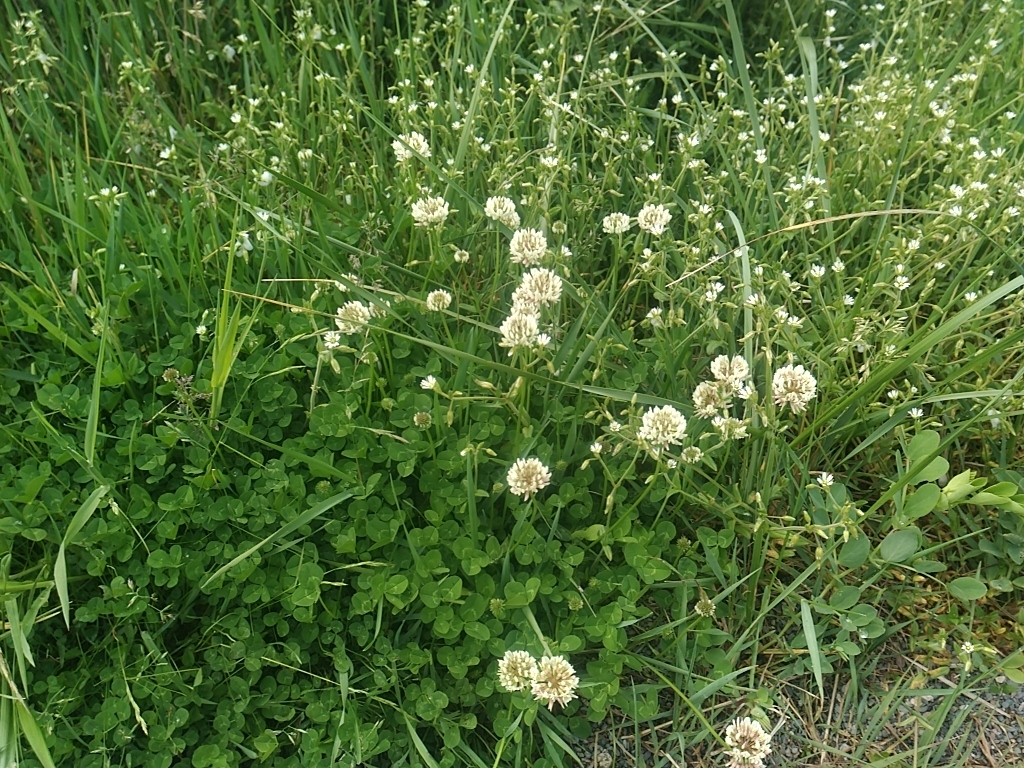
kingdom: Plantae
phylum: Tracheophyta
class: Magnoliopsida
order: Fabales
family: Fabaceae
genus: Trifolium
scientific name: Trifolium repens
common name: White clover
